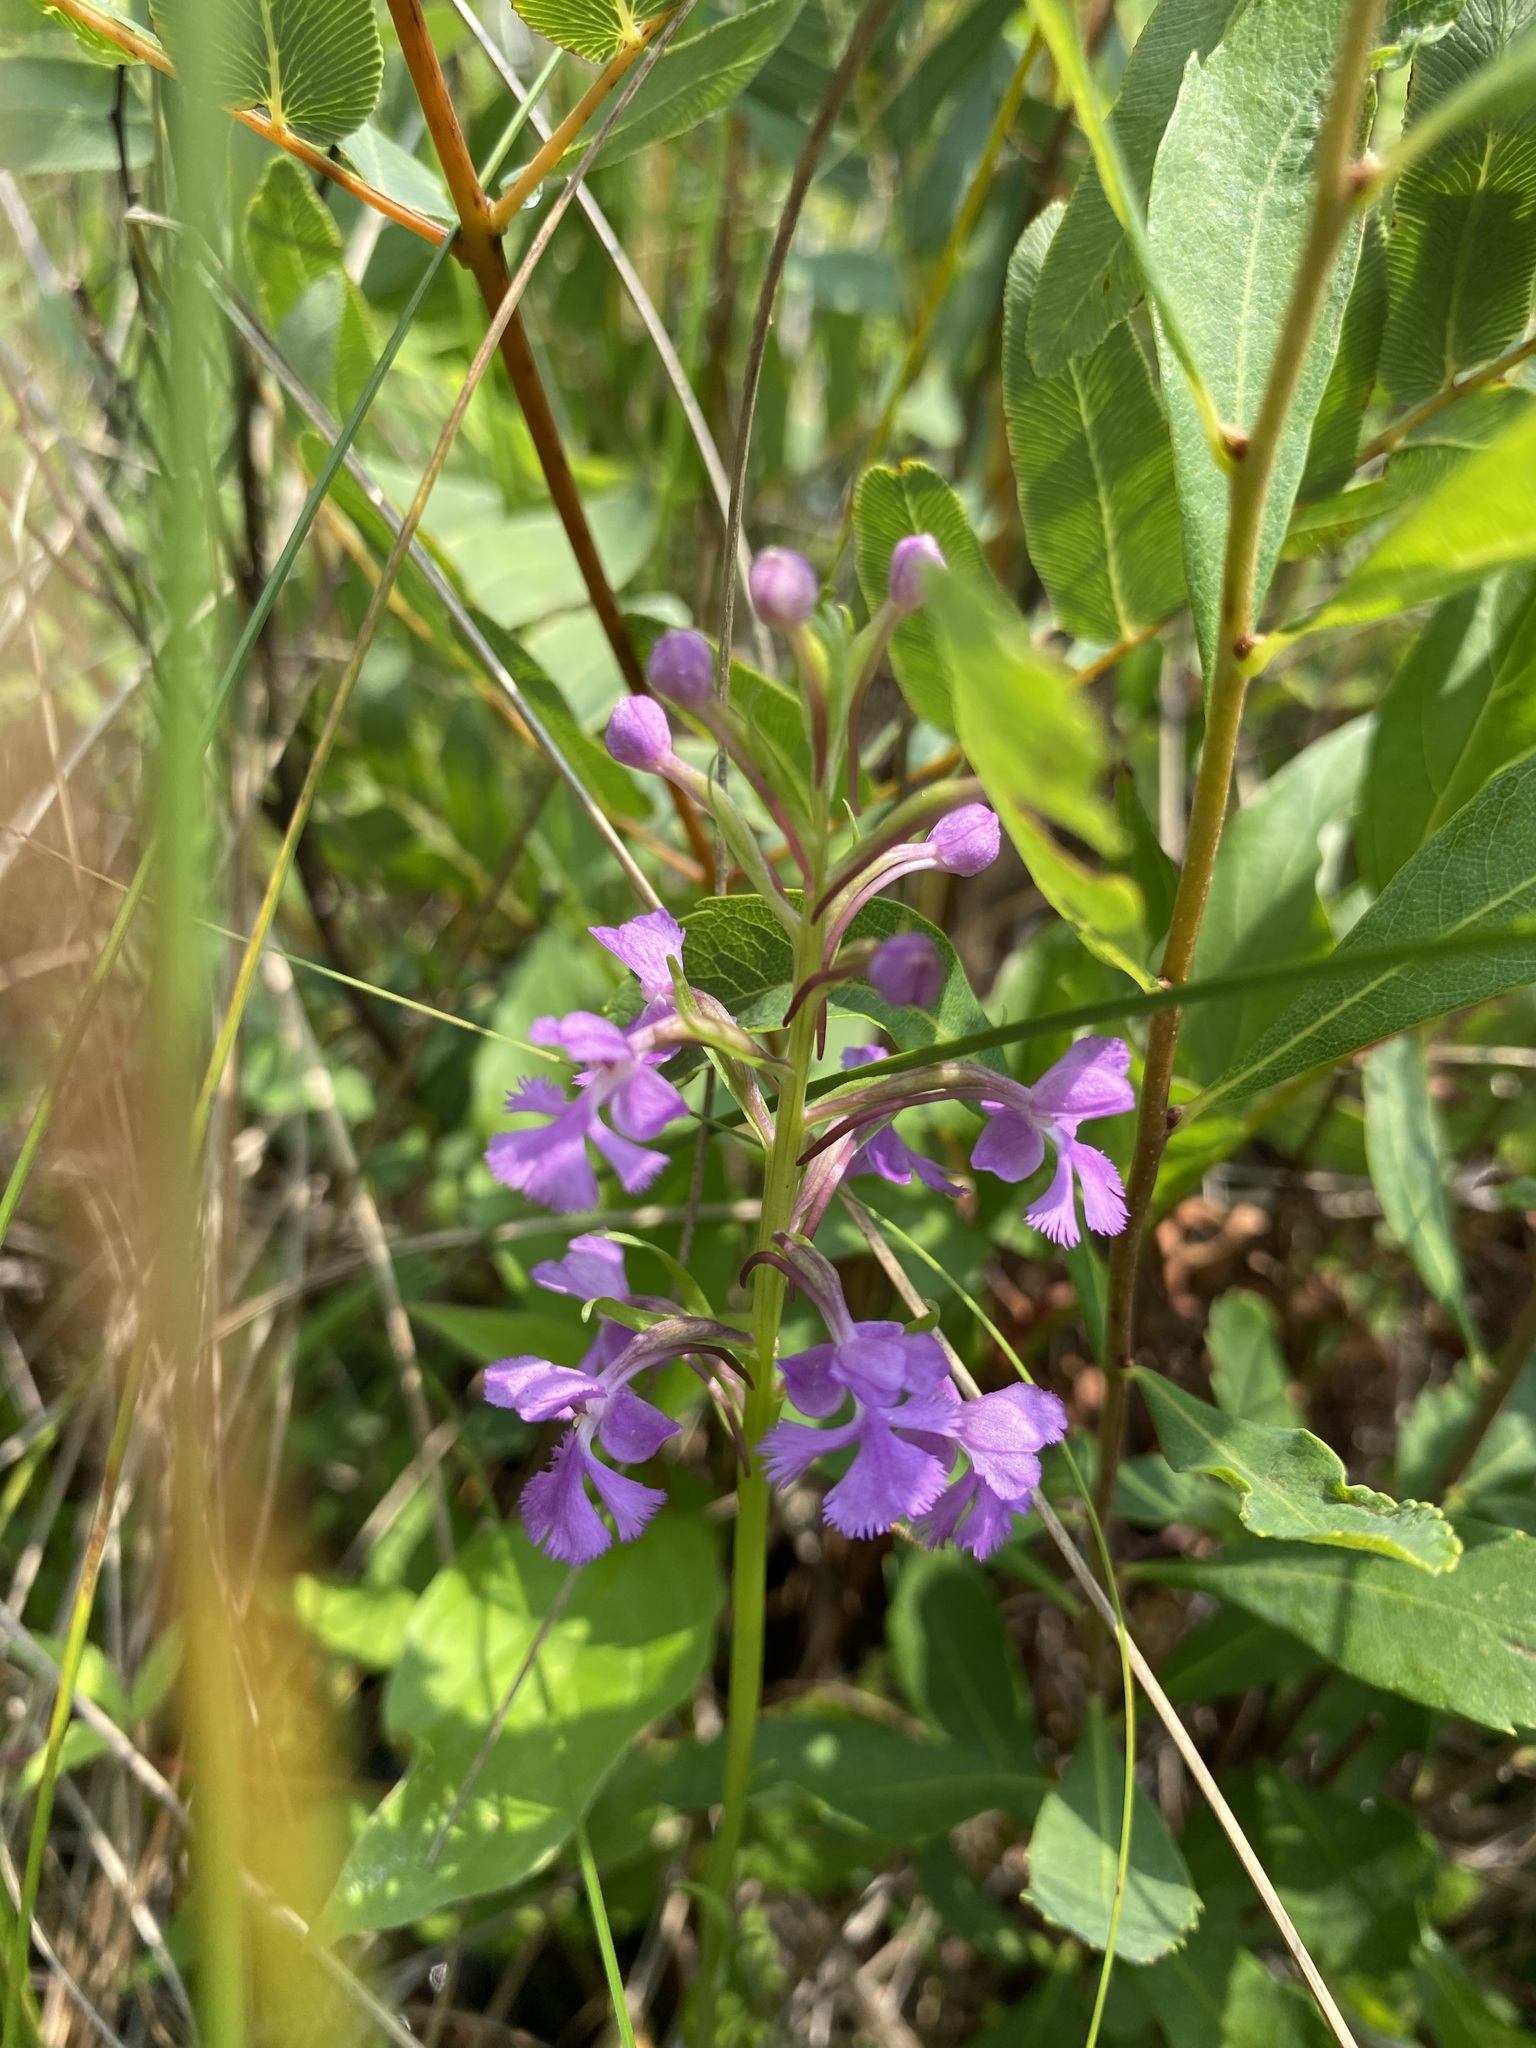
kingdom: Plantae
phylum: Tracheophyta
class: Liliopsida
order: Asparagales
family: Orchidaceae
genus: Platanthera
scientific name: Platanthera psycodes
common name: Lesser purple fringed orchid
